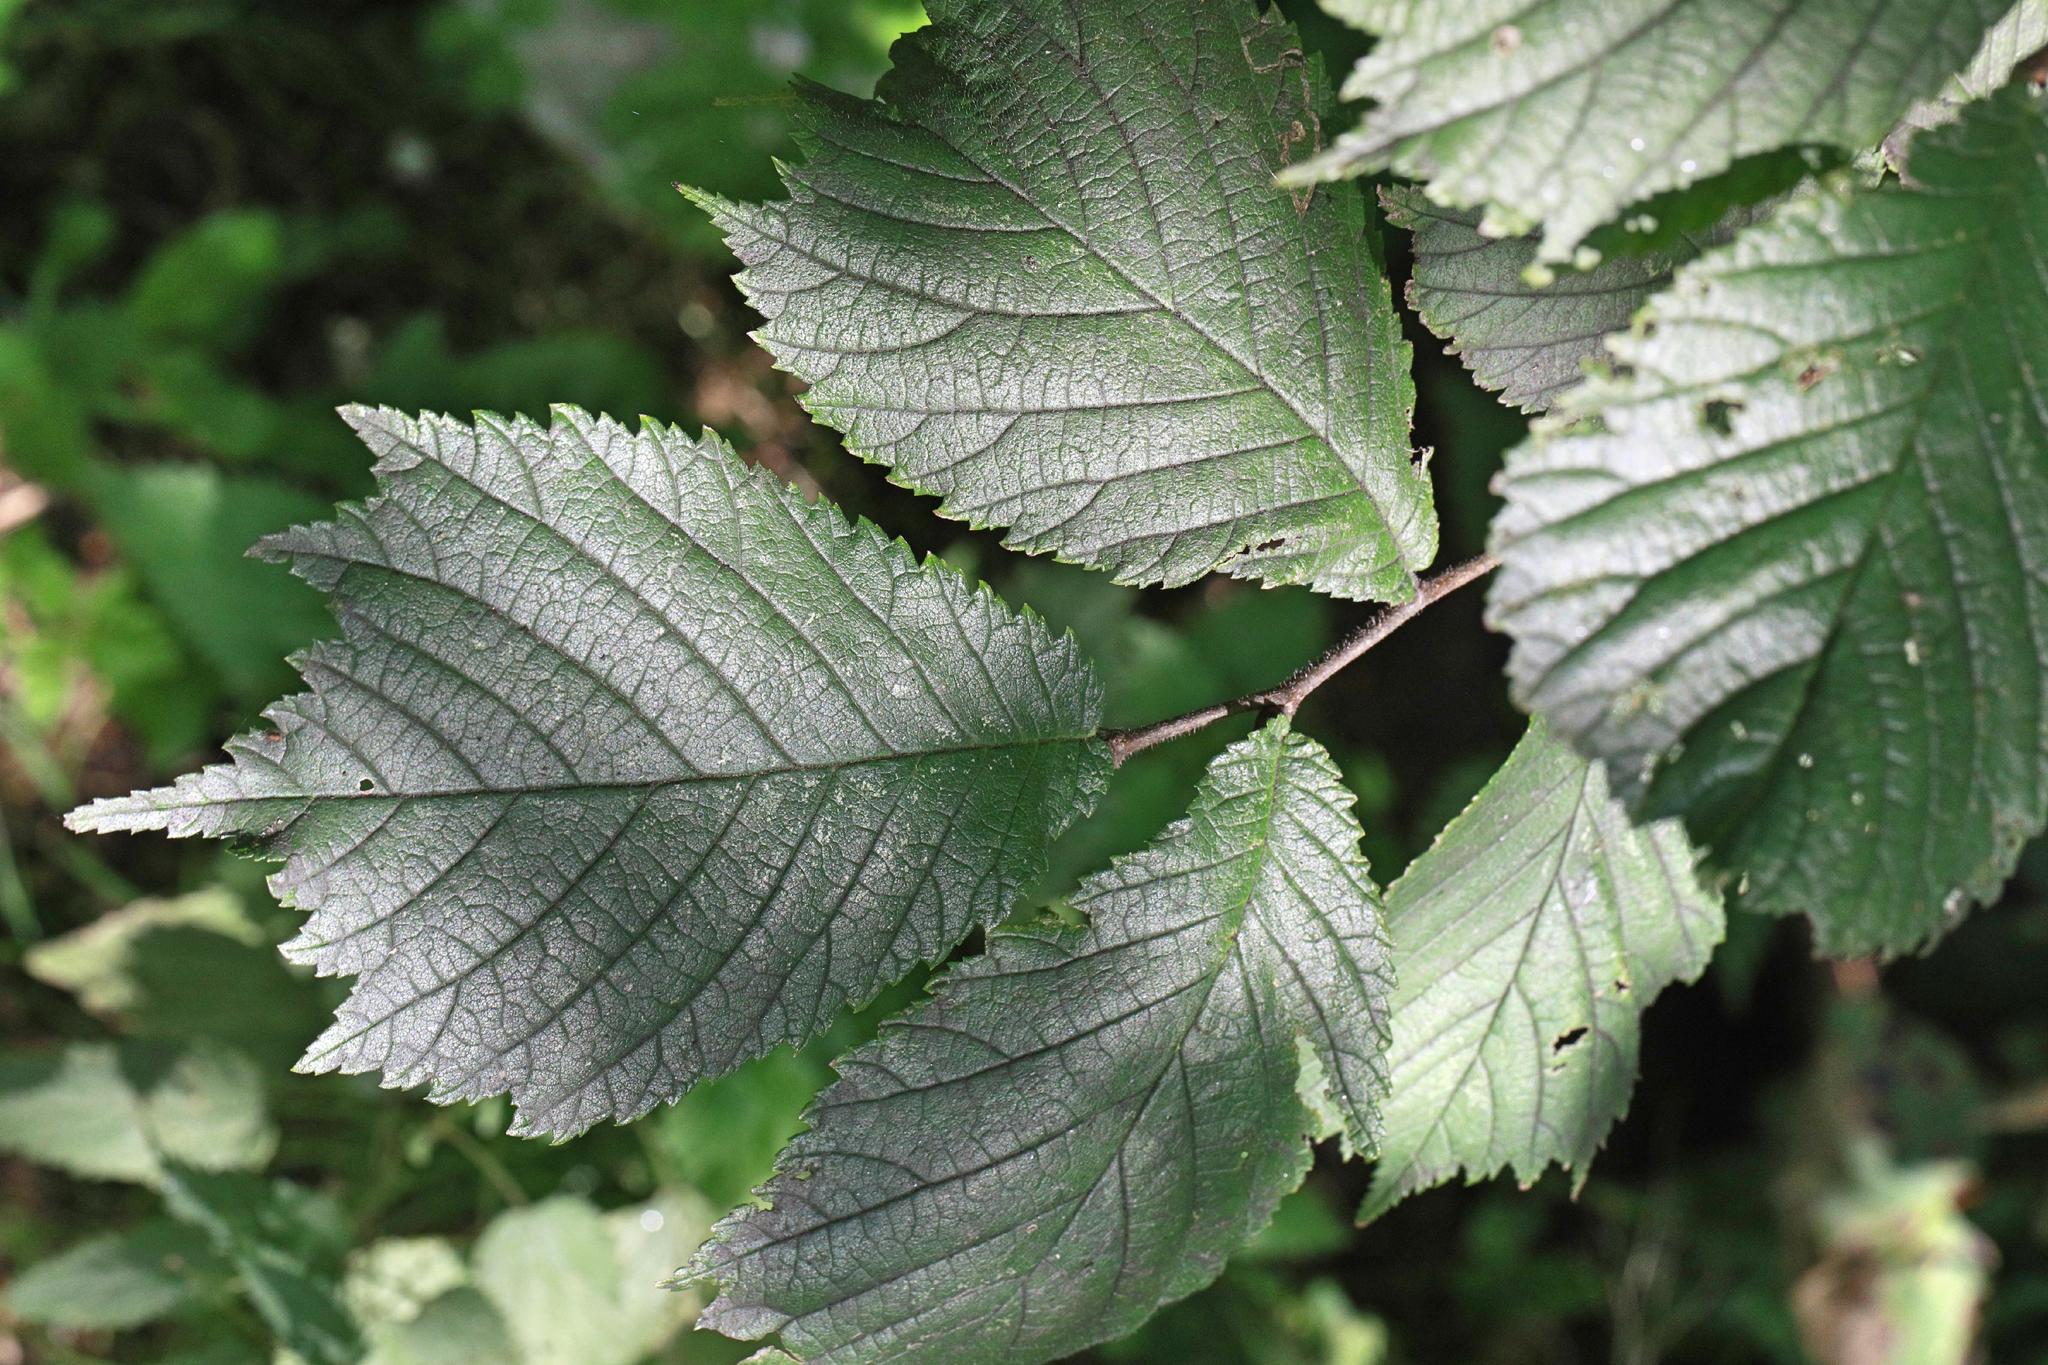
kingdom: Plantae
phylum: Tracheophyta
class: Magnoliopsida
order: Rosales
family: Ulmaceae
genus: Ulmus
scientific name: Ulmus glabra
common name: Wych elm
